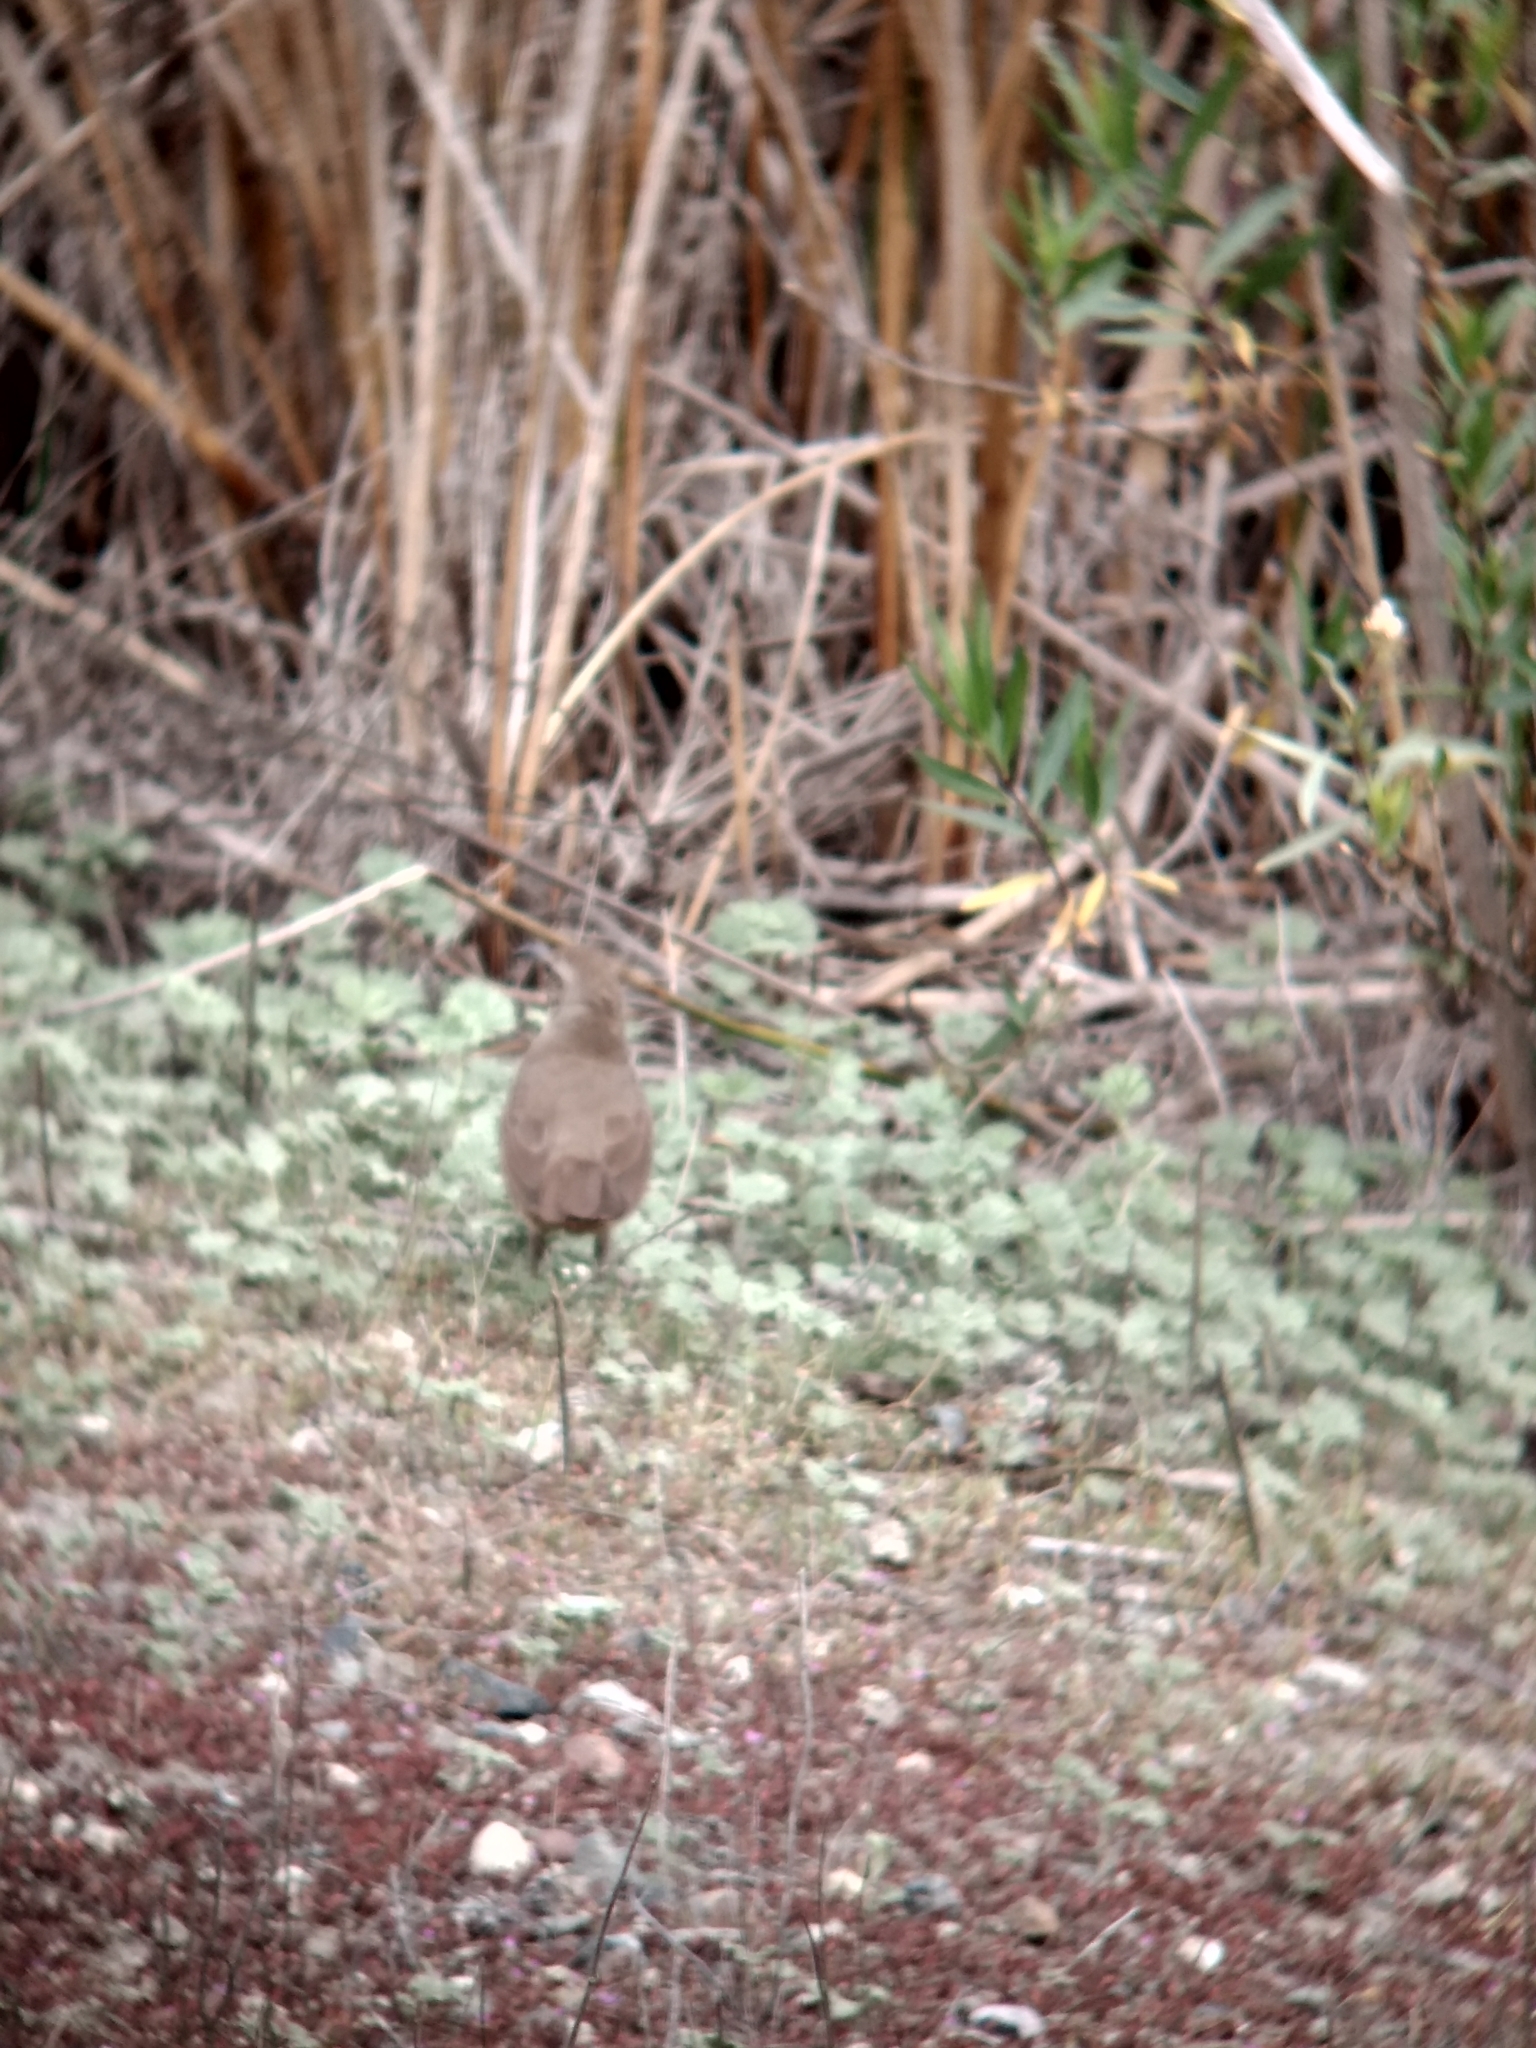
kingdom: Animalia
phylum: Chordata
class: Aves
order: Passeriformes
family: Mimidae
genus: Toxostoma
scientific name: Toxostoma redivivum
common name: California thrasher
